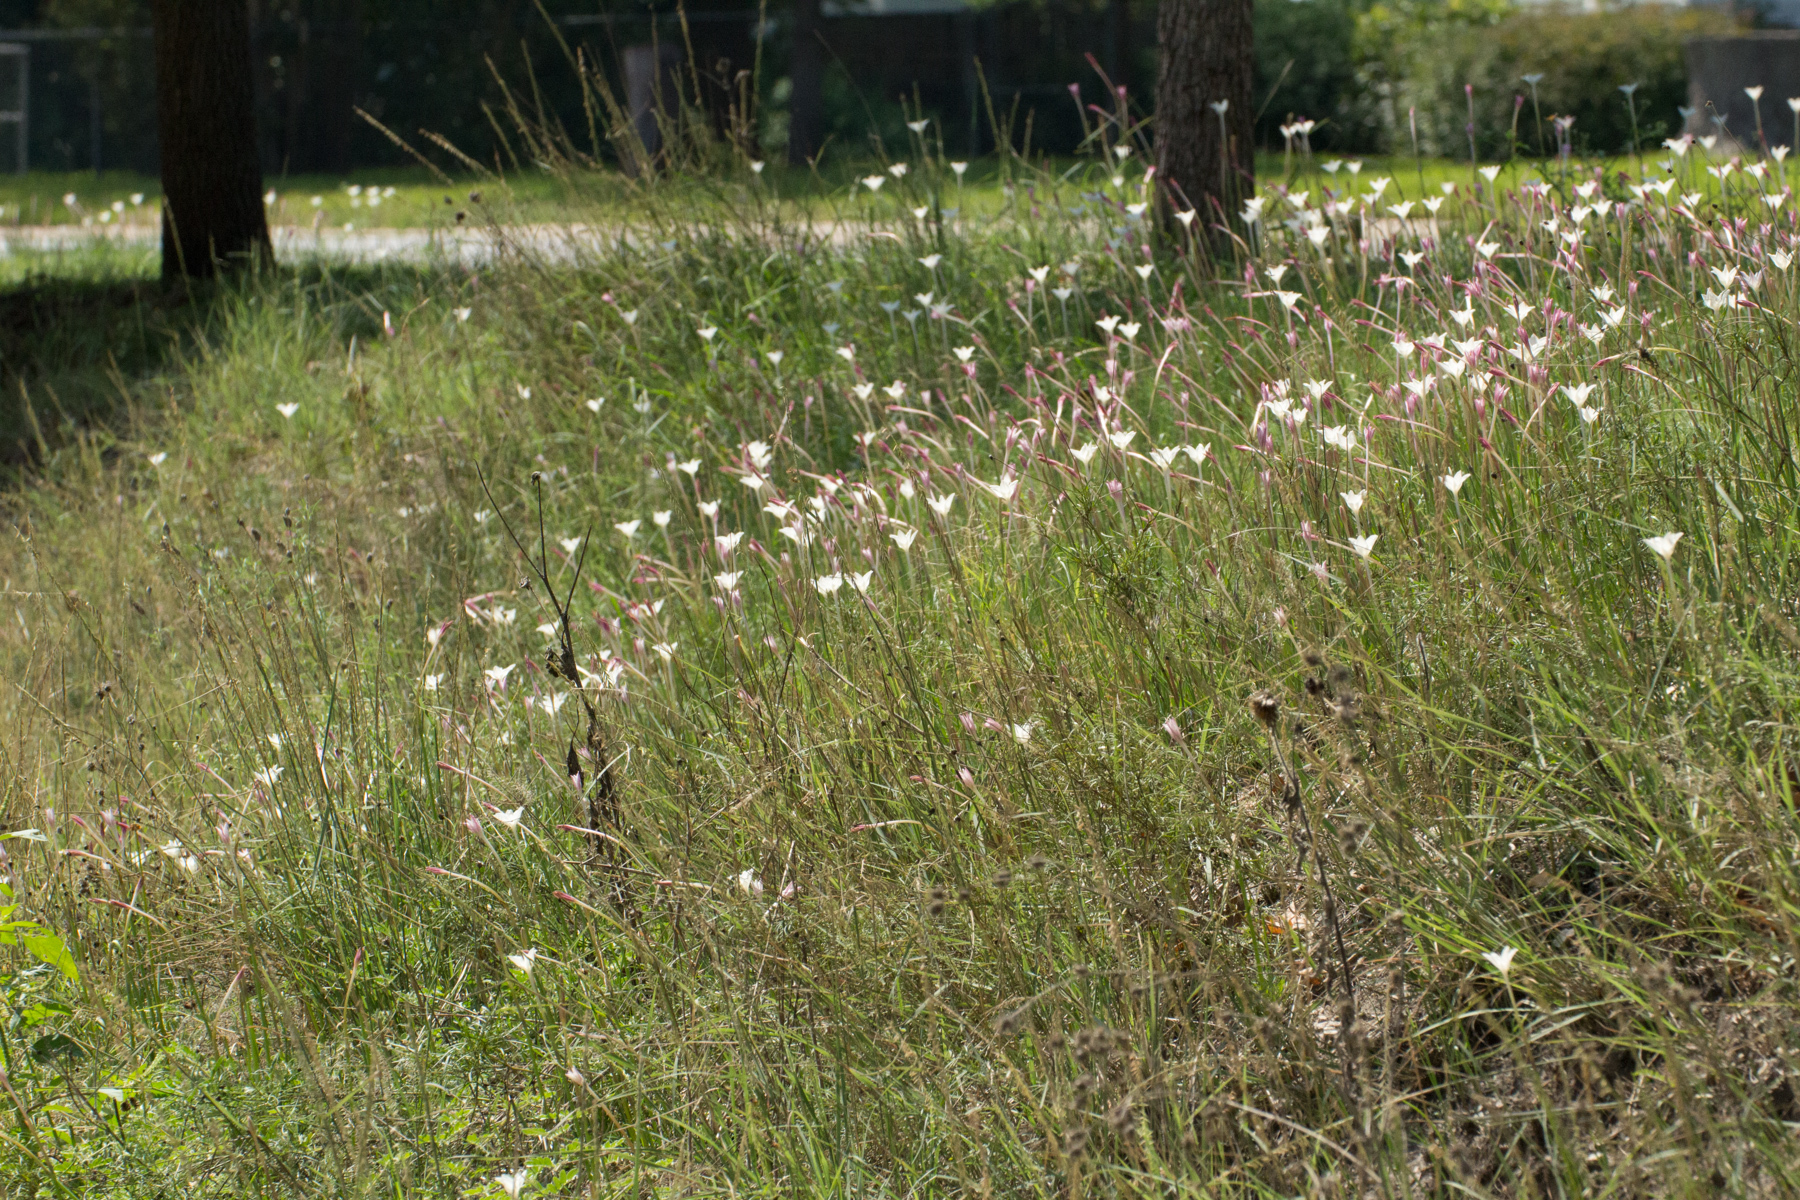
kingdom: Plantae
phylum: Tracheophyta
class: Liliopsida
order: Asparagales
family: Amaryllidaceae
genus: Zephyranthes
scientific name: Zephyranthes chlorosolen
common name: Evening rain-lily
